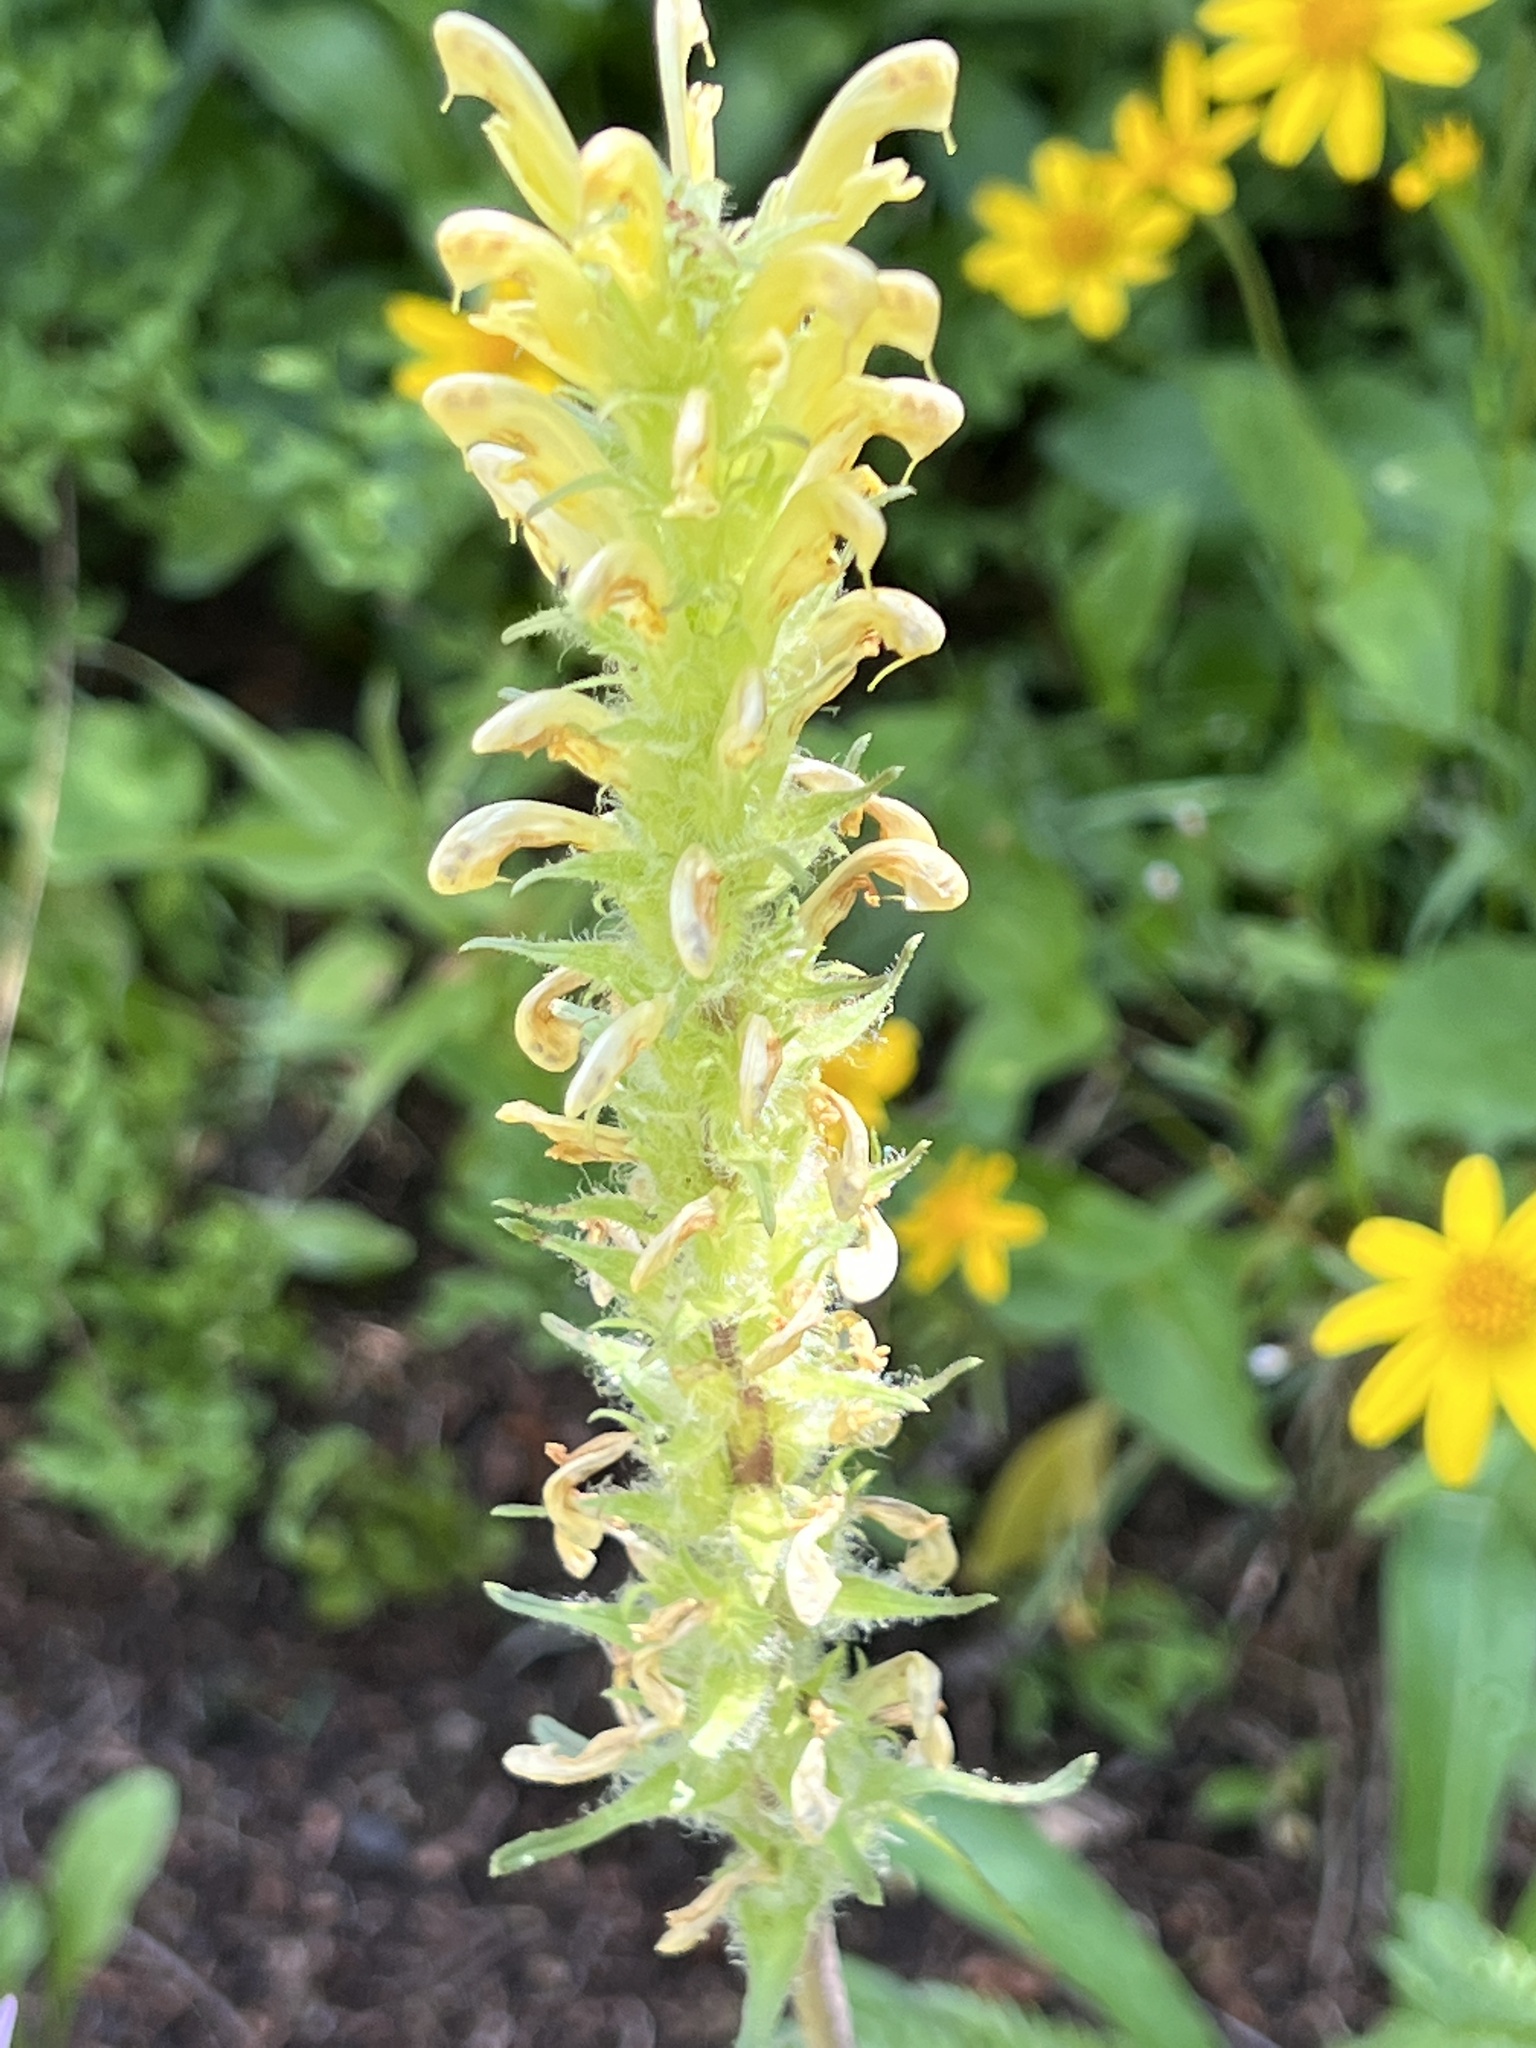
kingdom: Plantae
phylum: Tracheophyta
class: Magnoliopsida
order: Lamiales
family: Orobanchaceae
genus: Pedicularis
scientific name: Pedicularis bracteosa
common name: Bracted lousewort
